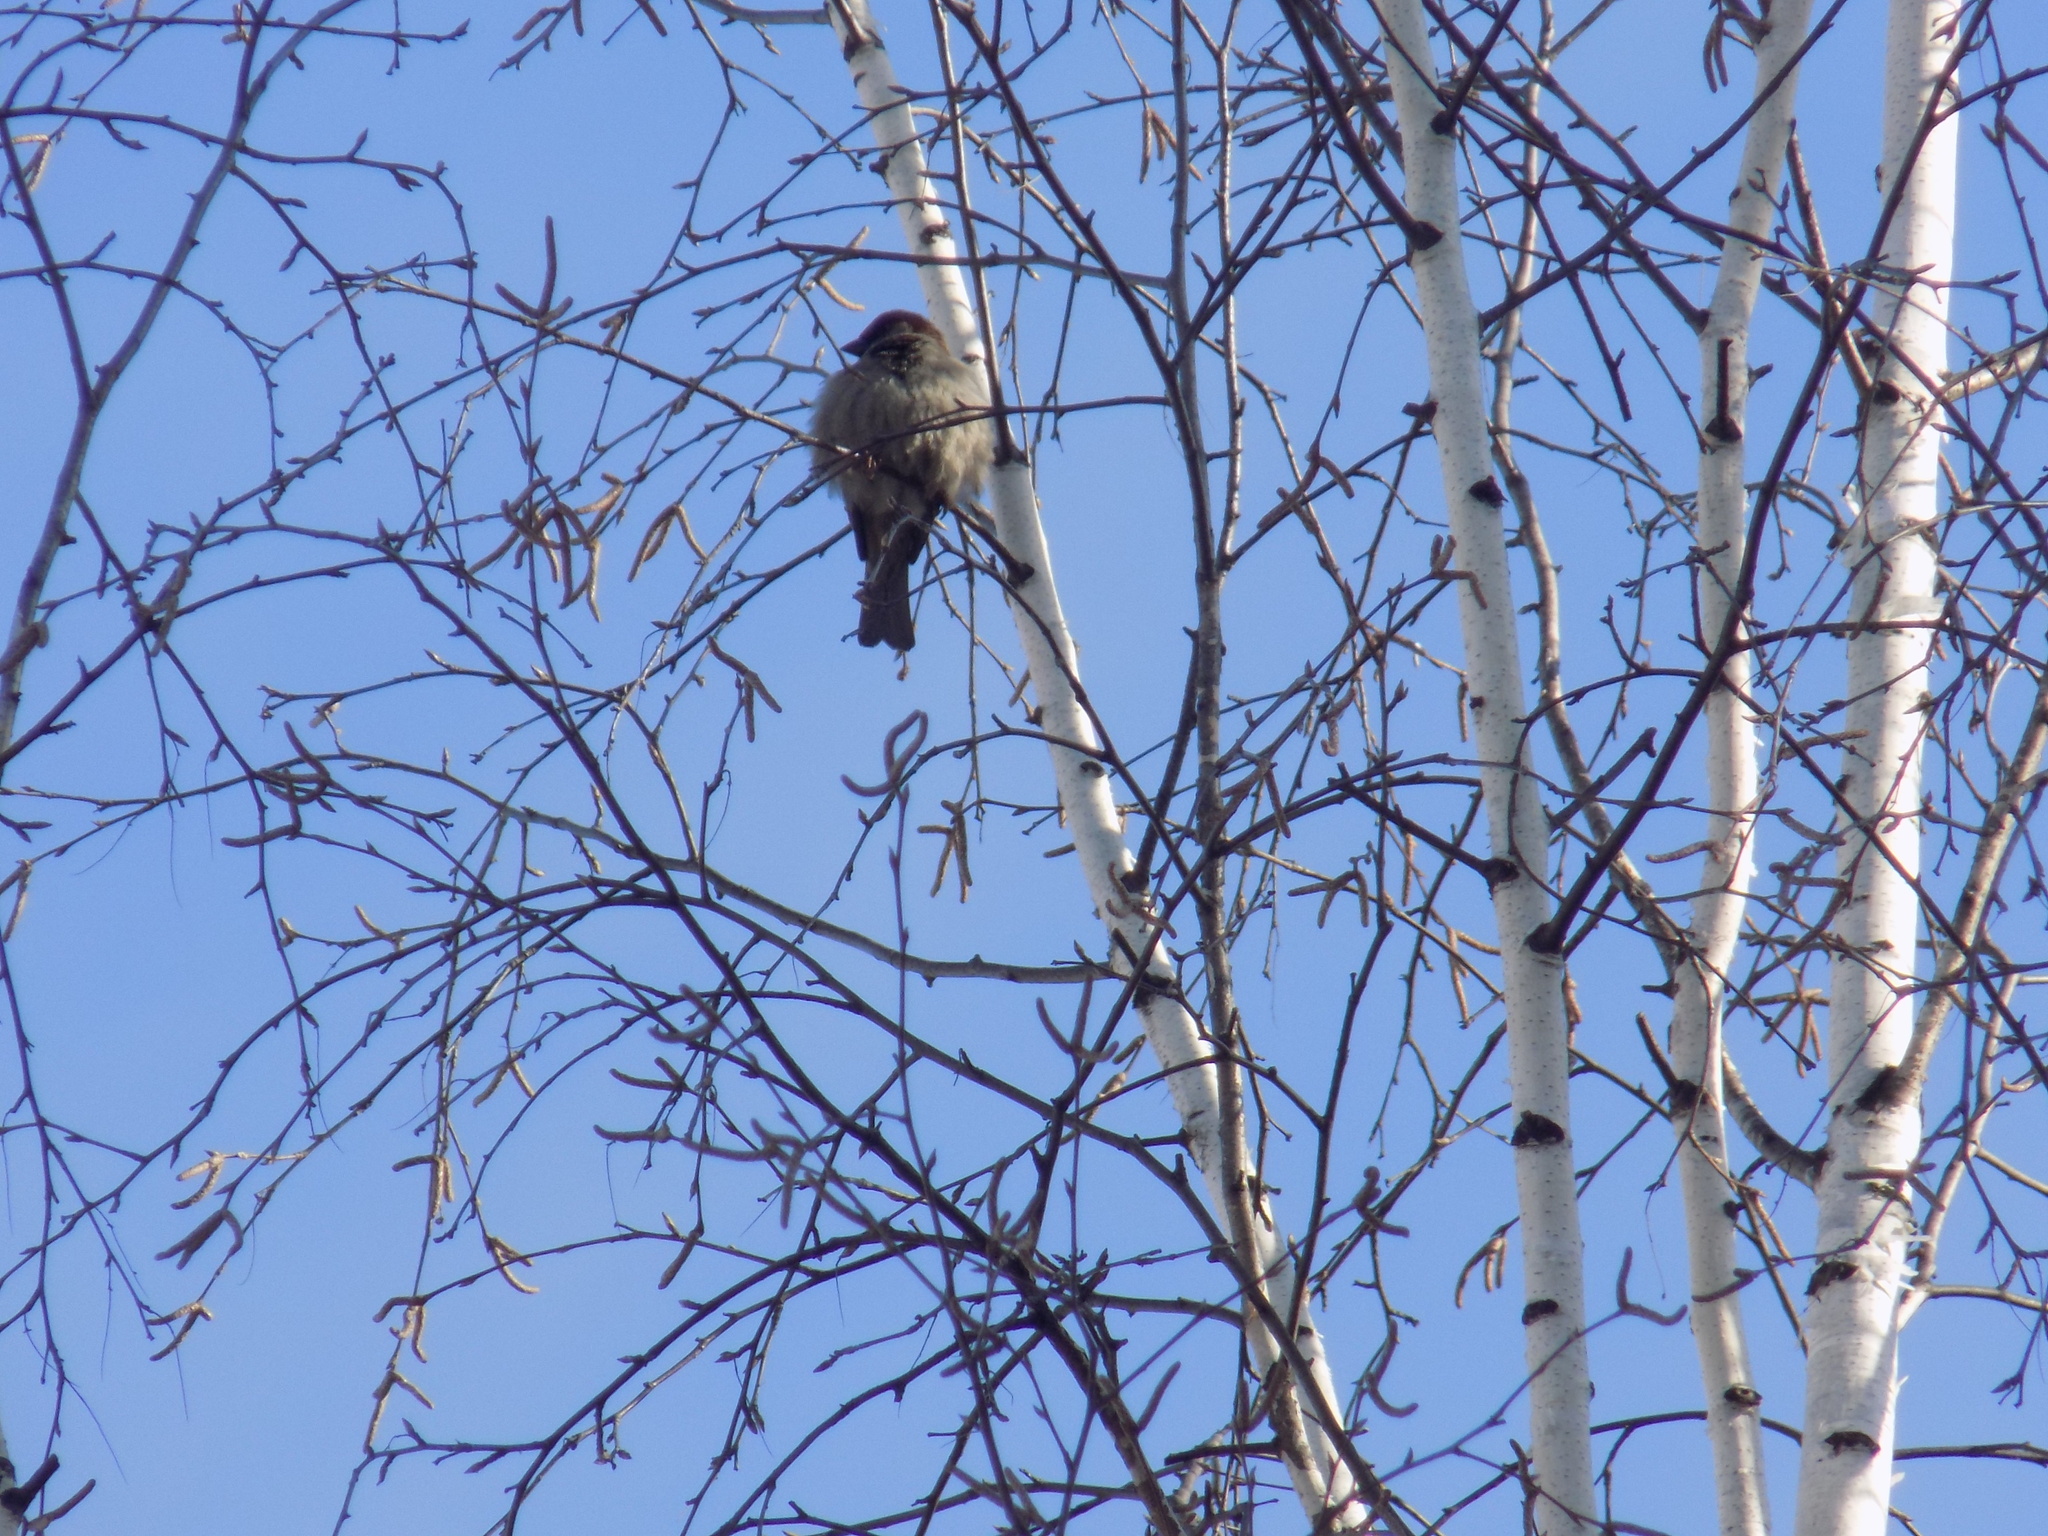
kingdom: Animalia
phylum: Chordata
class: Aves
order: Passeriformes
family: Passeridae
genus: Passer
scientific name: Passer domesticus
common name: House sparrow
